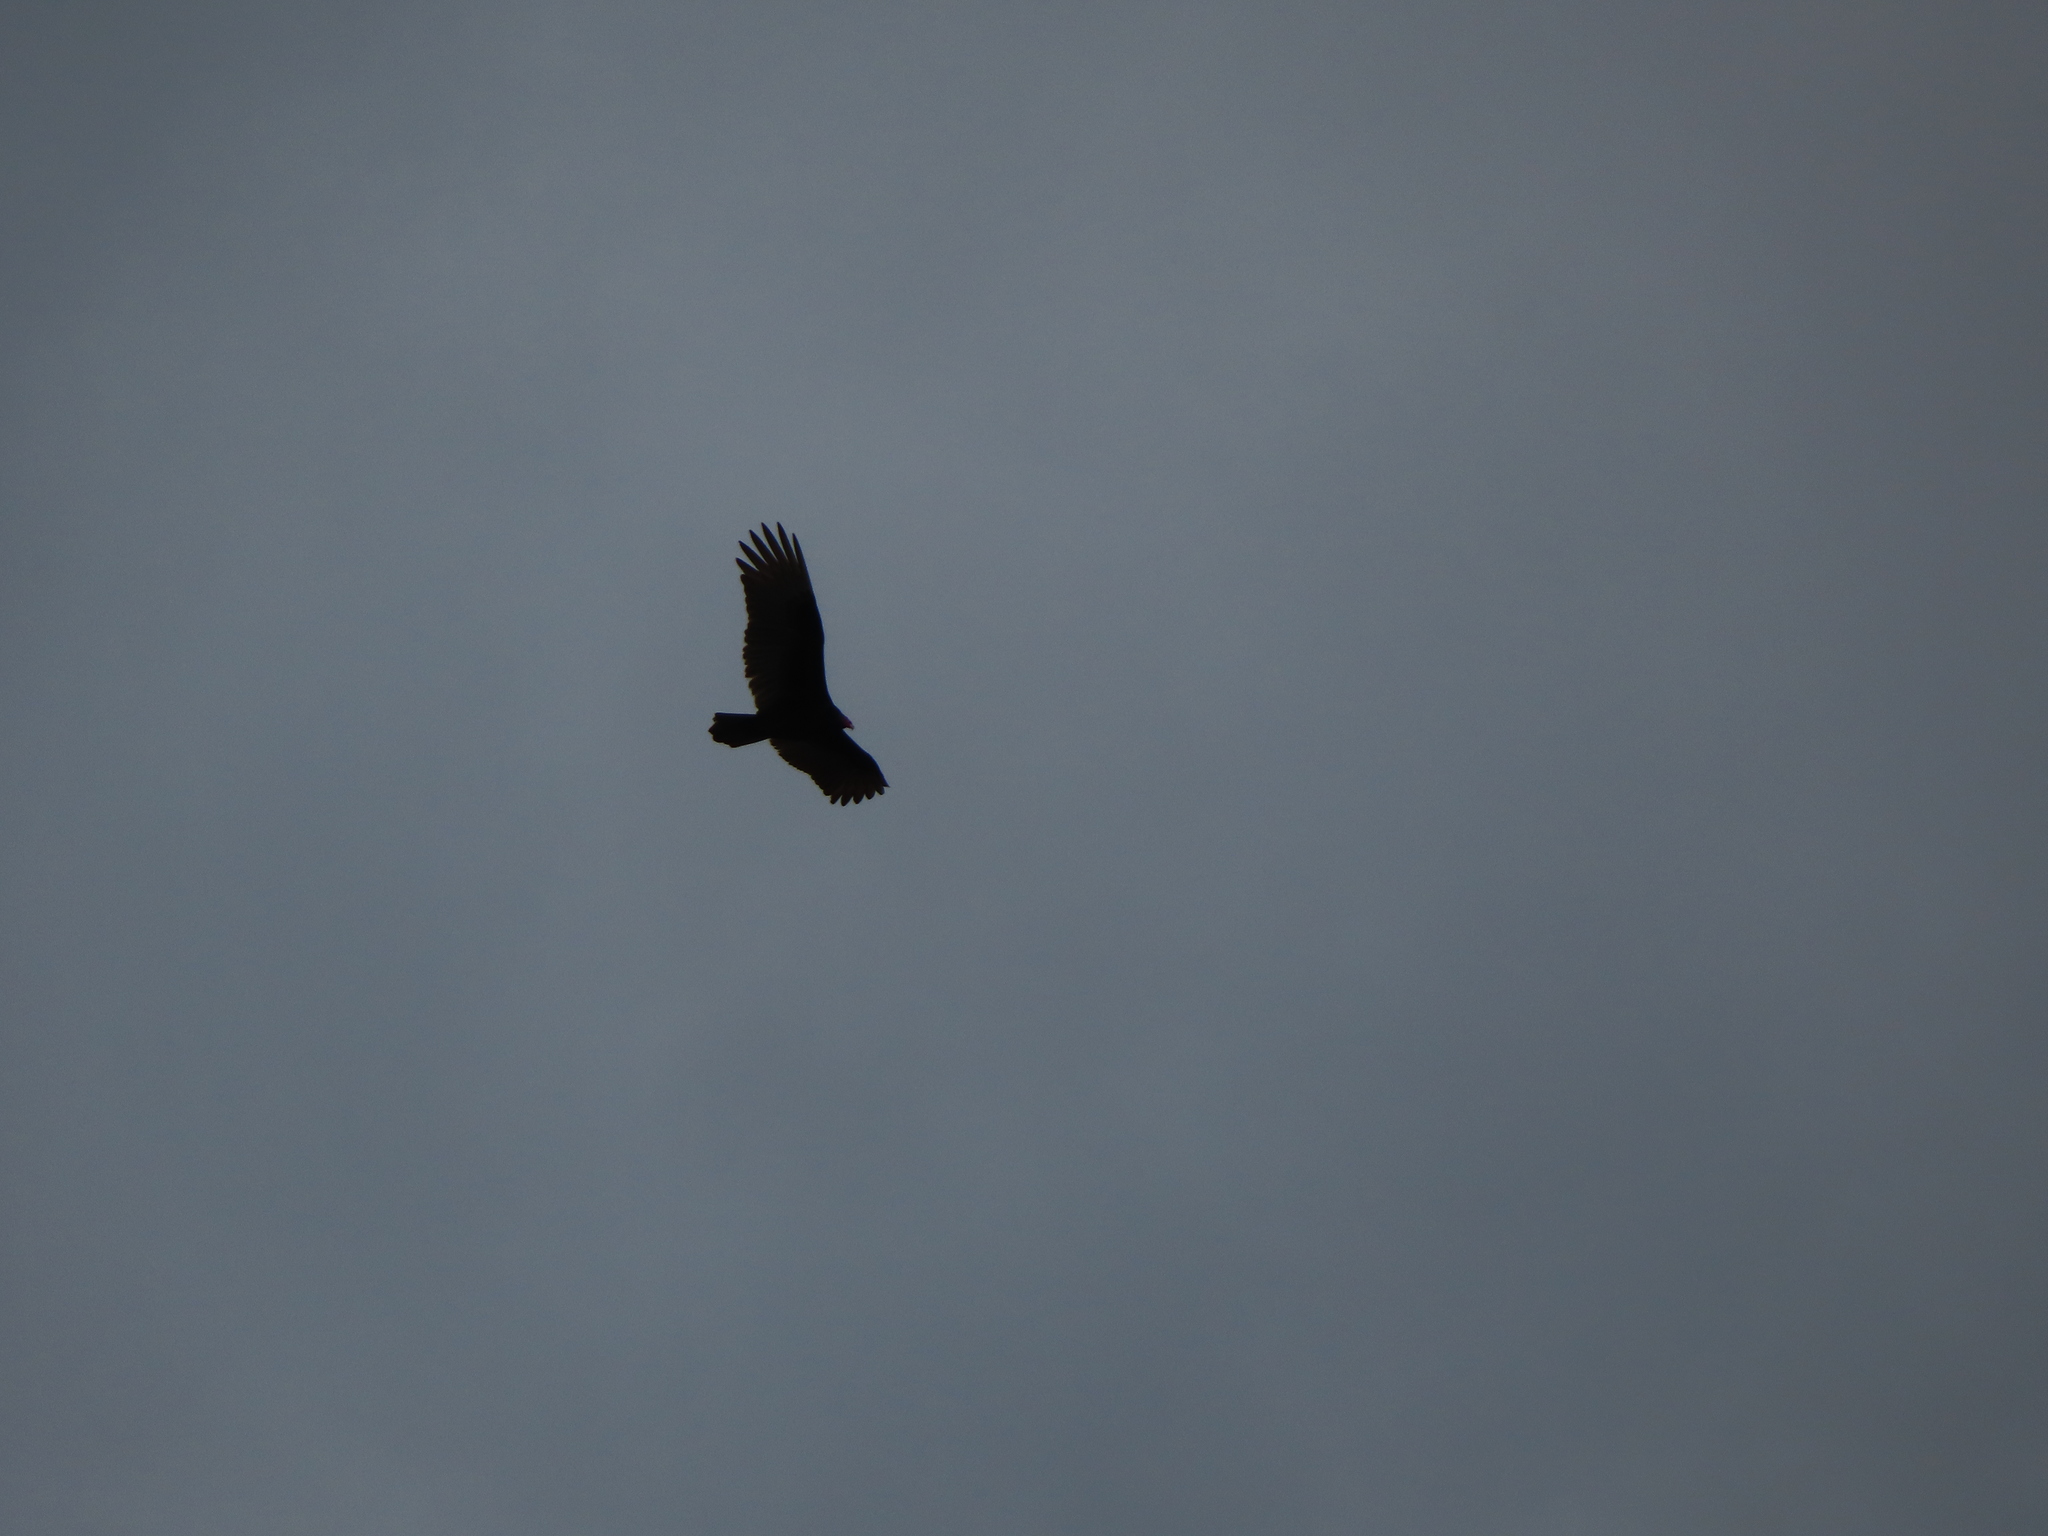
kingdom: Animalia
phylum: Chordata
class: Aves
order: Accipitriformes
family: Cathartidae
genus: Cathartes
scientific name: Cathartes aura
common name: Turkey vulture
